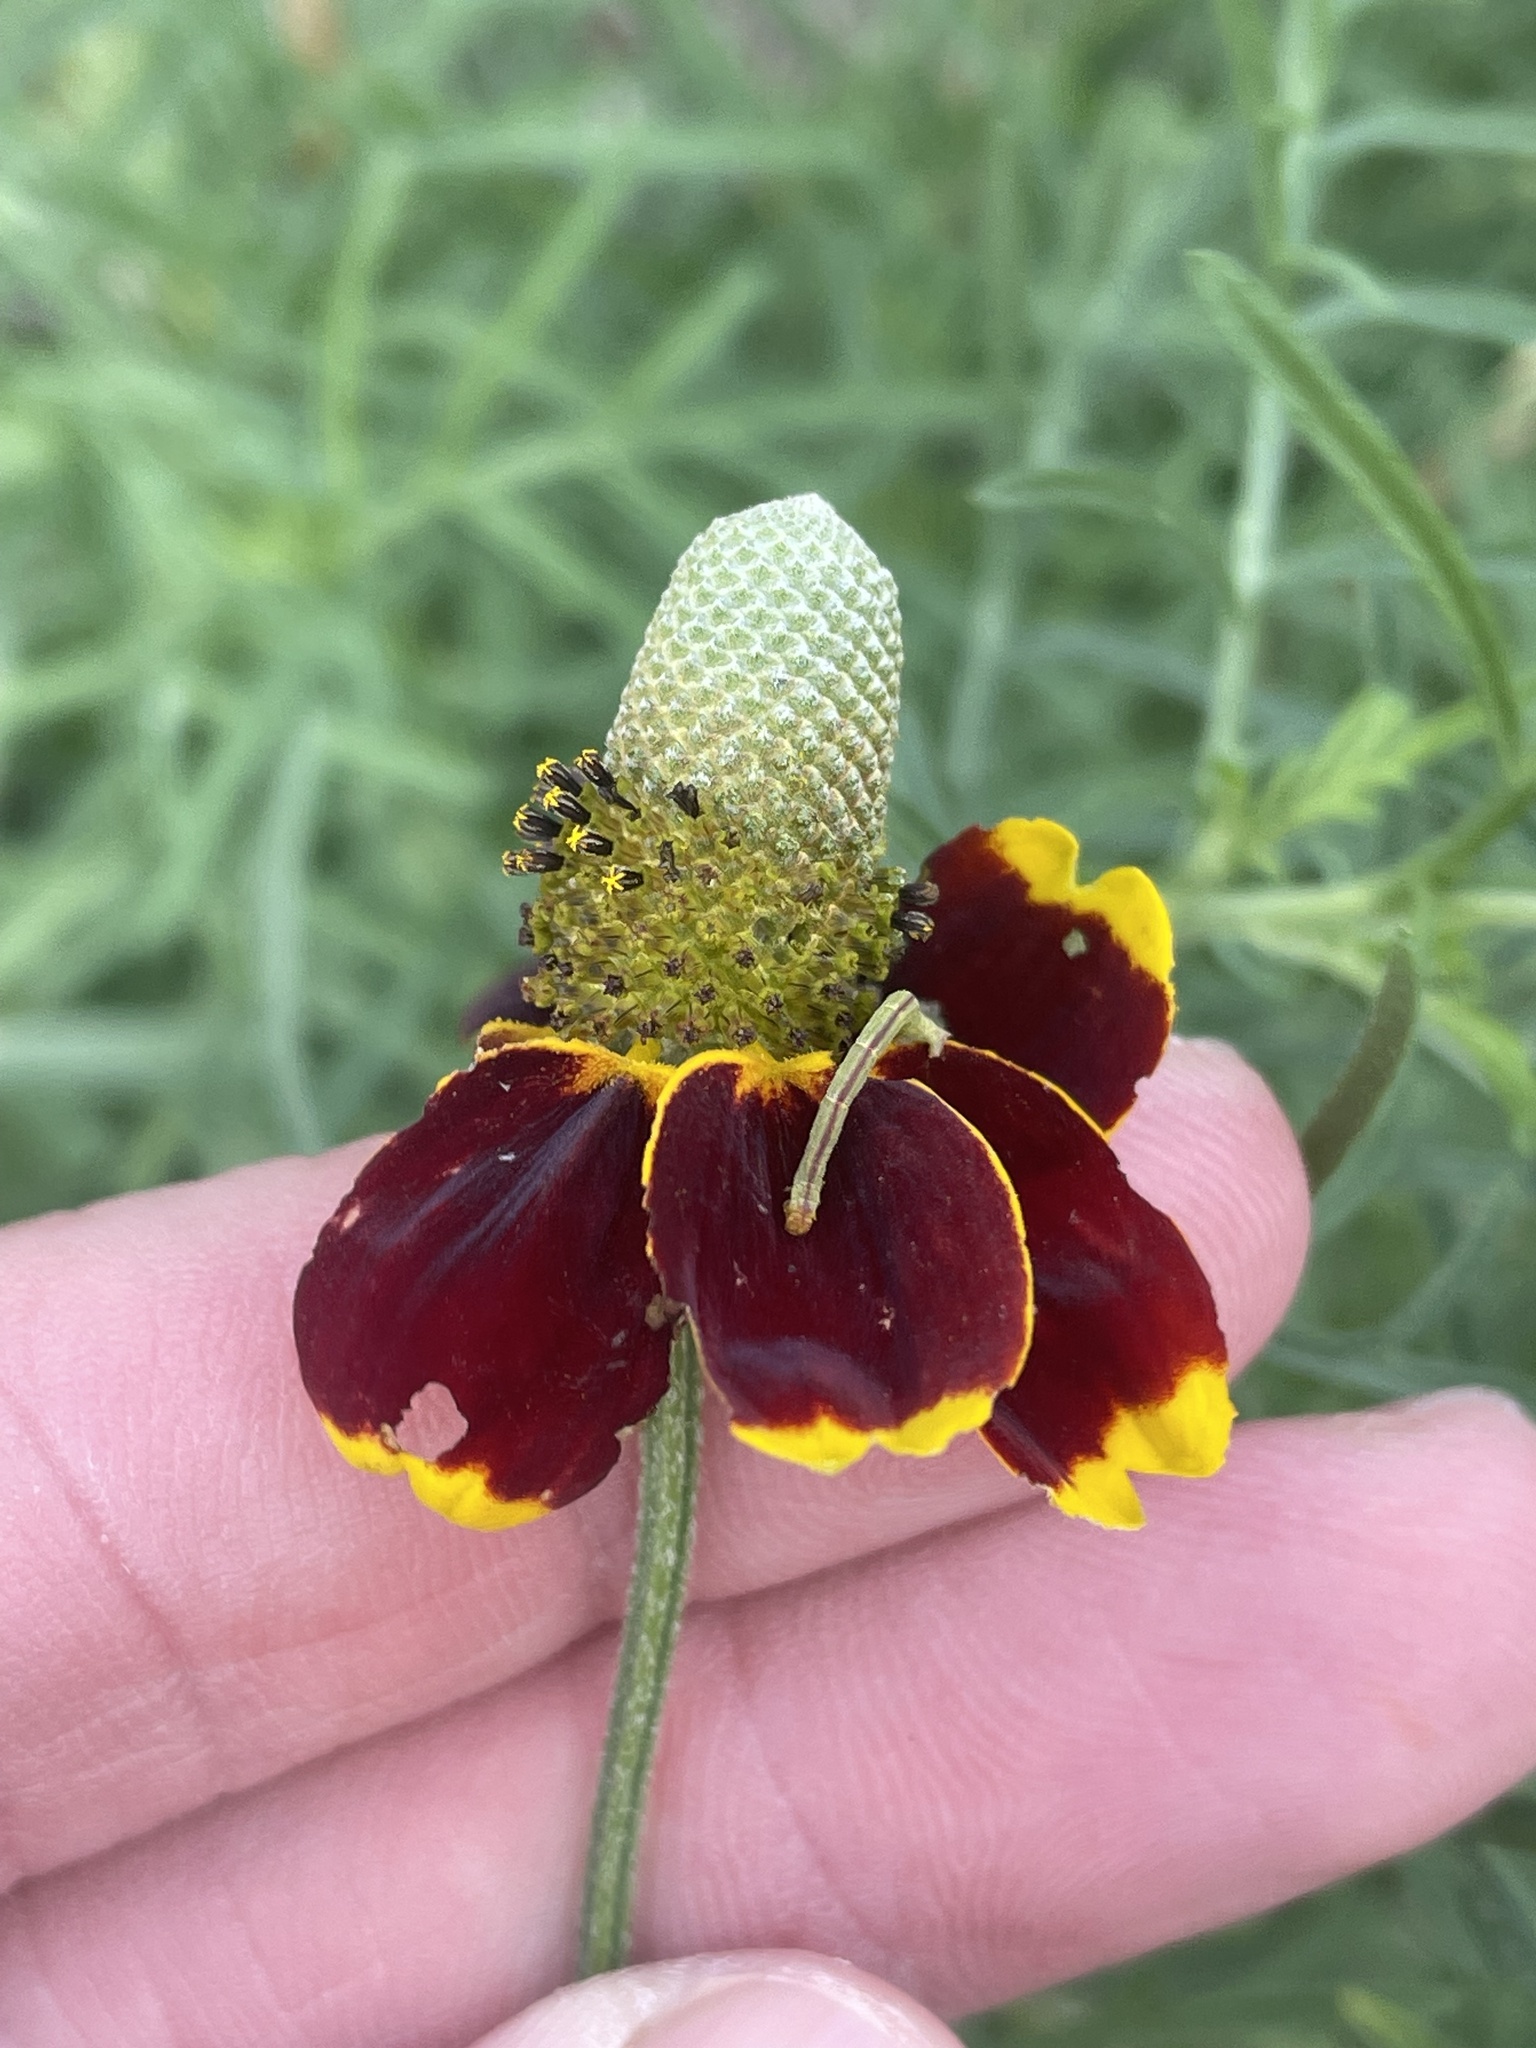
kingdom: Plantae
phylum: Tracheophyta
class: Magnoliopsida
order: Asterales
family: Asteraceae
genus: Ratibida
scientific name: Ratibida columnifera
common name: Prairie coneflower
